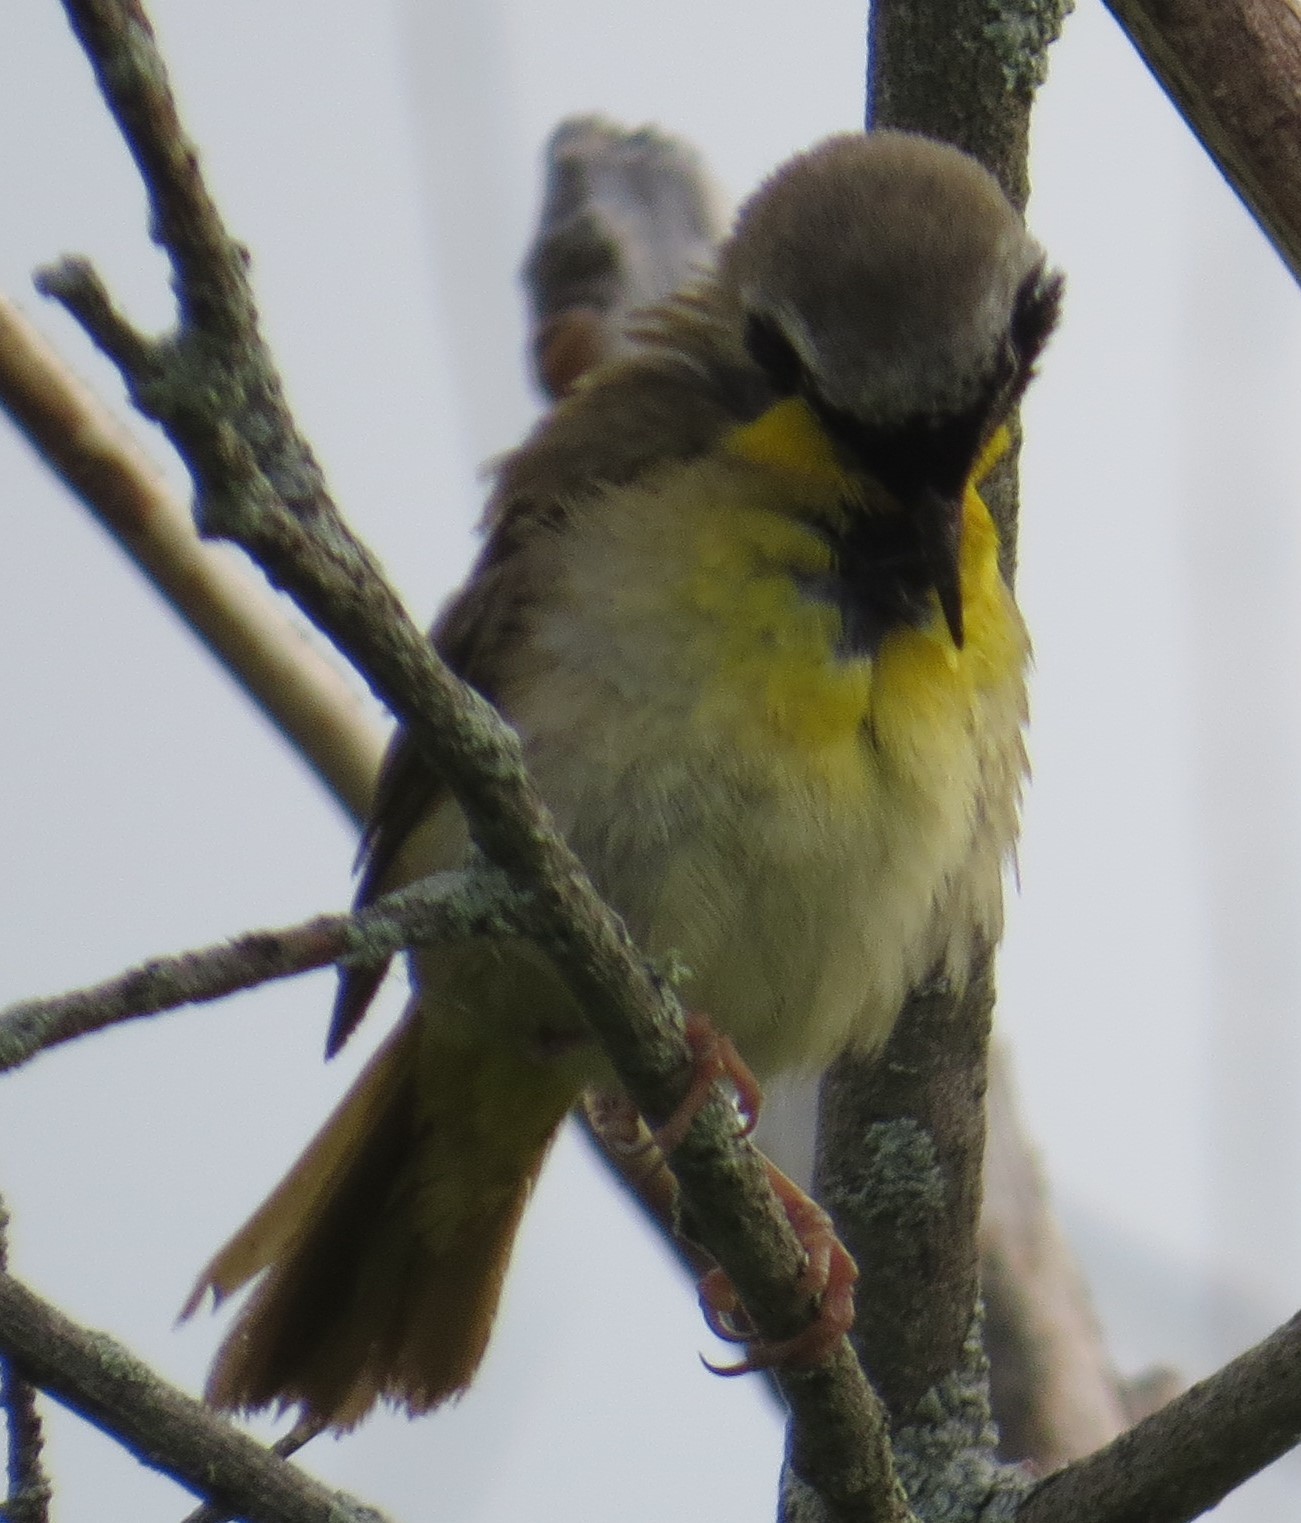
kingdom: Animalia
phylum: Chordata
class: Aves
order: Passeriformes
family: Parulidae
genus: Geothlypis
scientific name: Geothlypis trichas
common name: Common yellowthroat
